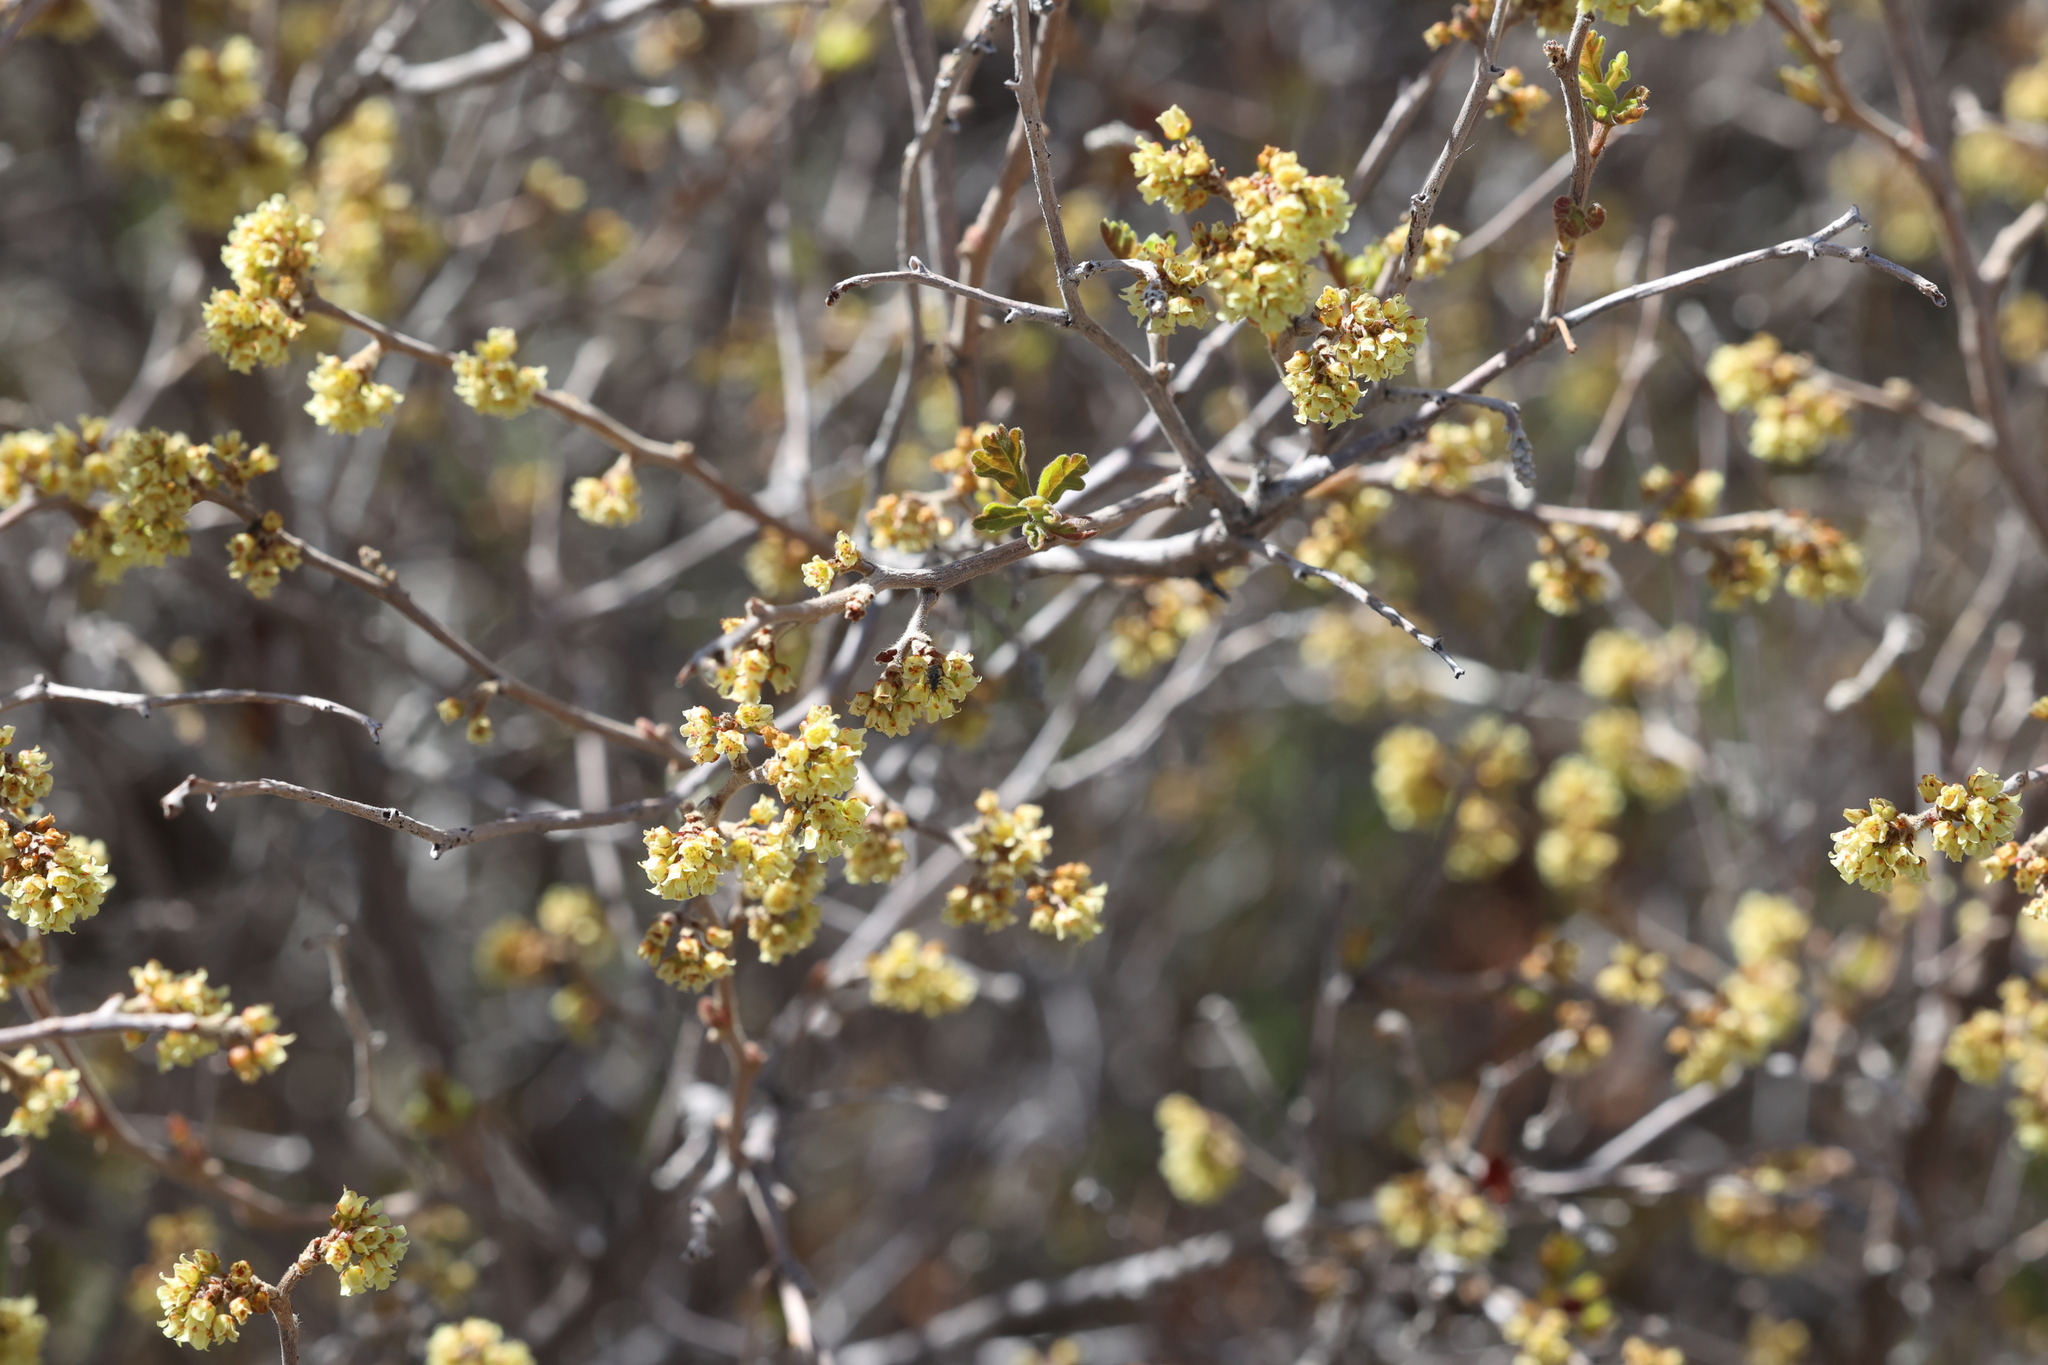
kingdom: Plantae
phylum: Tracheophyta
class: Magnoliopsida
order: Sapindales
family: Anacardiaceae
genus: Rhus
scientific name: Rhus trilobata
